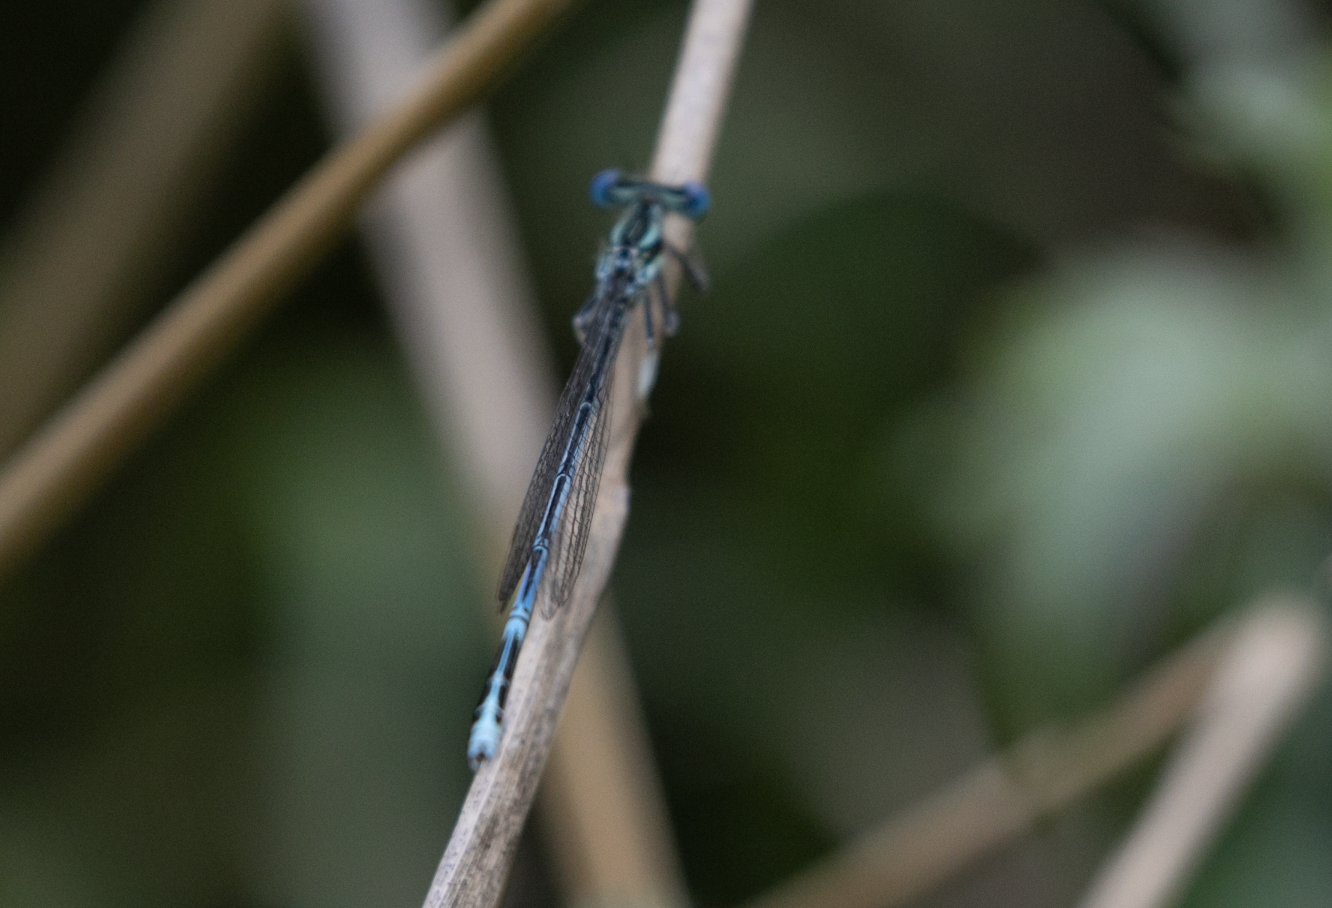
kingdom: Animalia
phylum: Arthropoda
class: Insecta
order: Odonata
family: Platycnemididae
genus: Platycnemis
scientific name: Platycnemis pennipes
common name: White-legged damselfly
